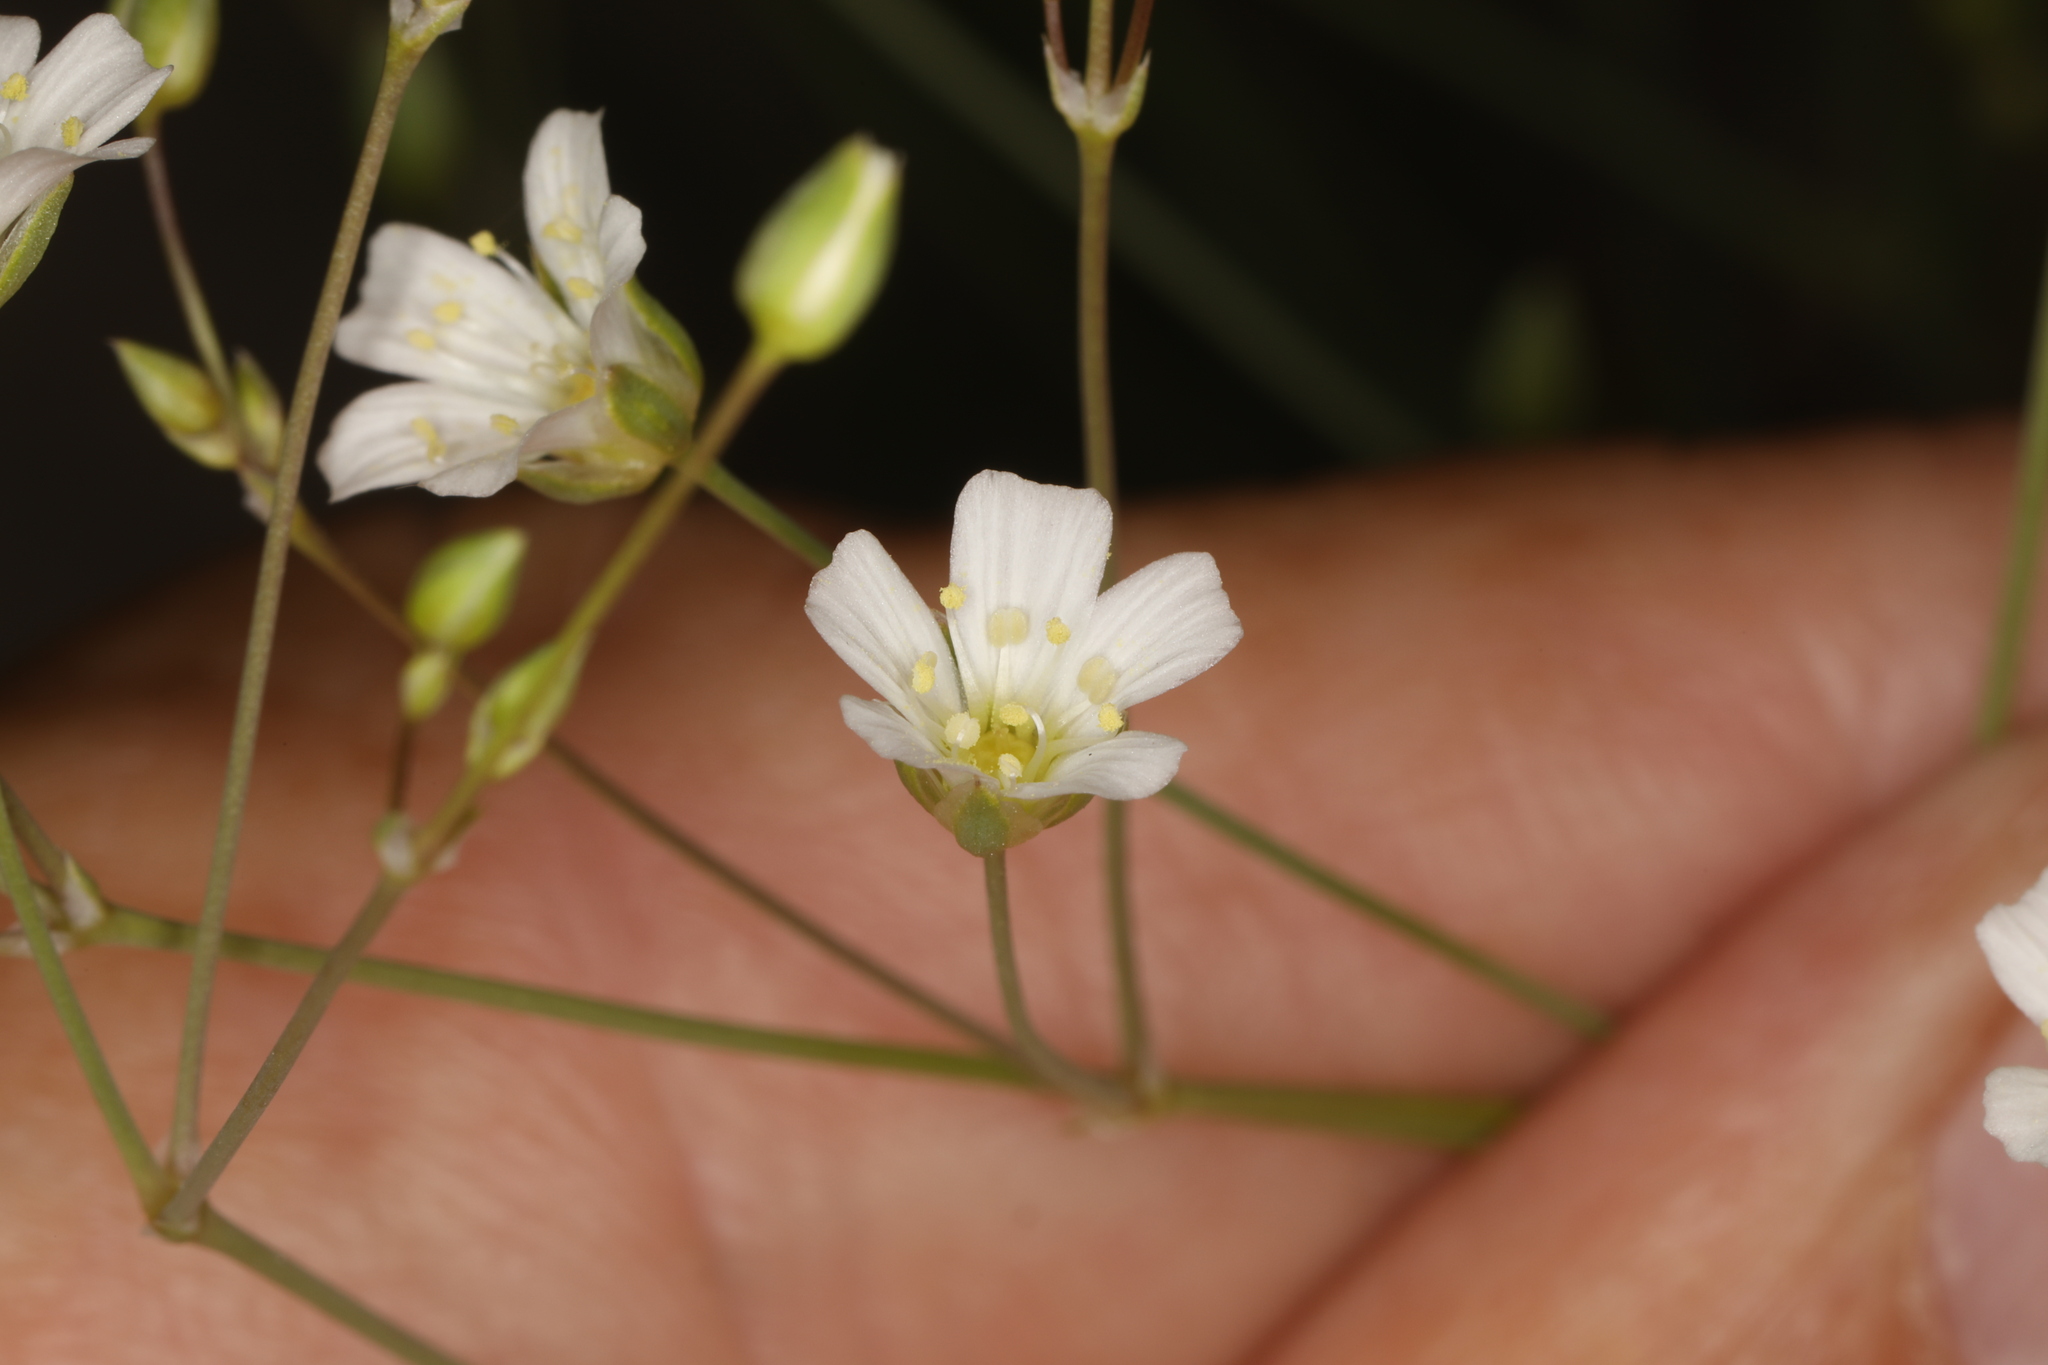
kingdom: Plantae
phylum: Tracheophyta
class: Magnoliopsida
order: Caryophyllales
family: Caryophyllaceae
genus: Eremogone
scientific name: Eremogone ferrisiae
